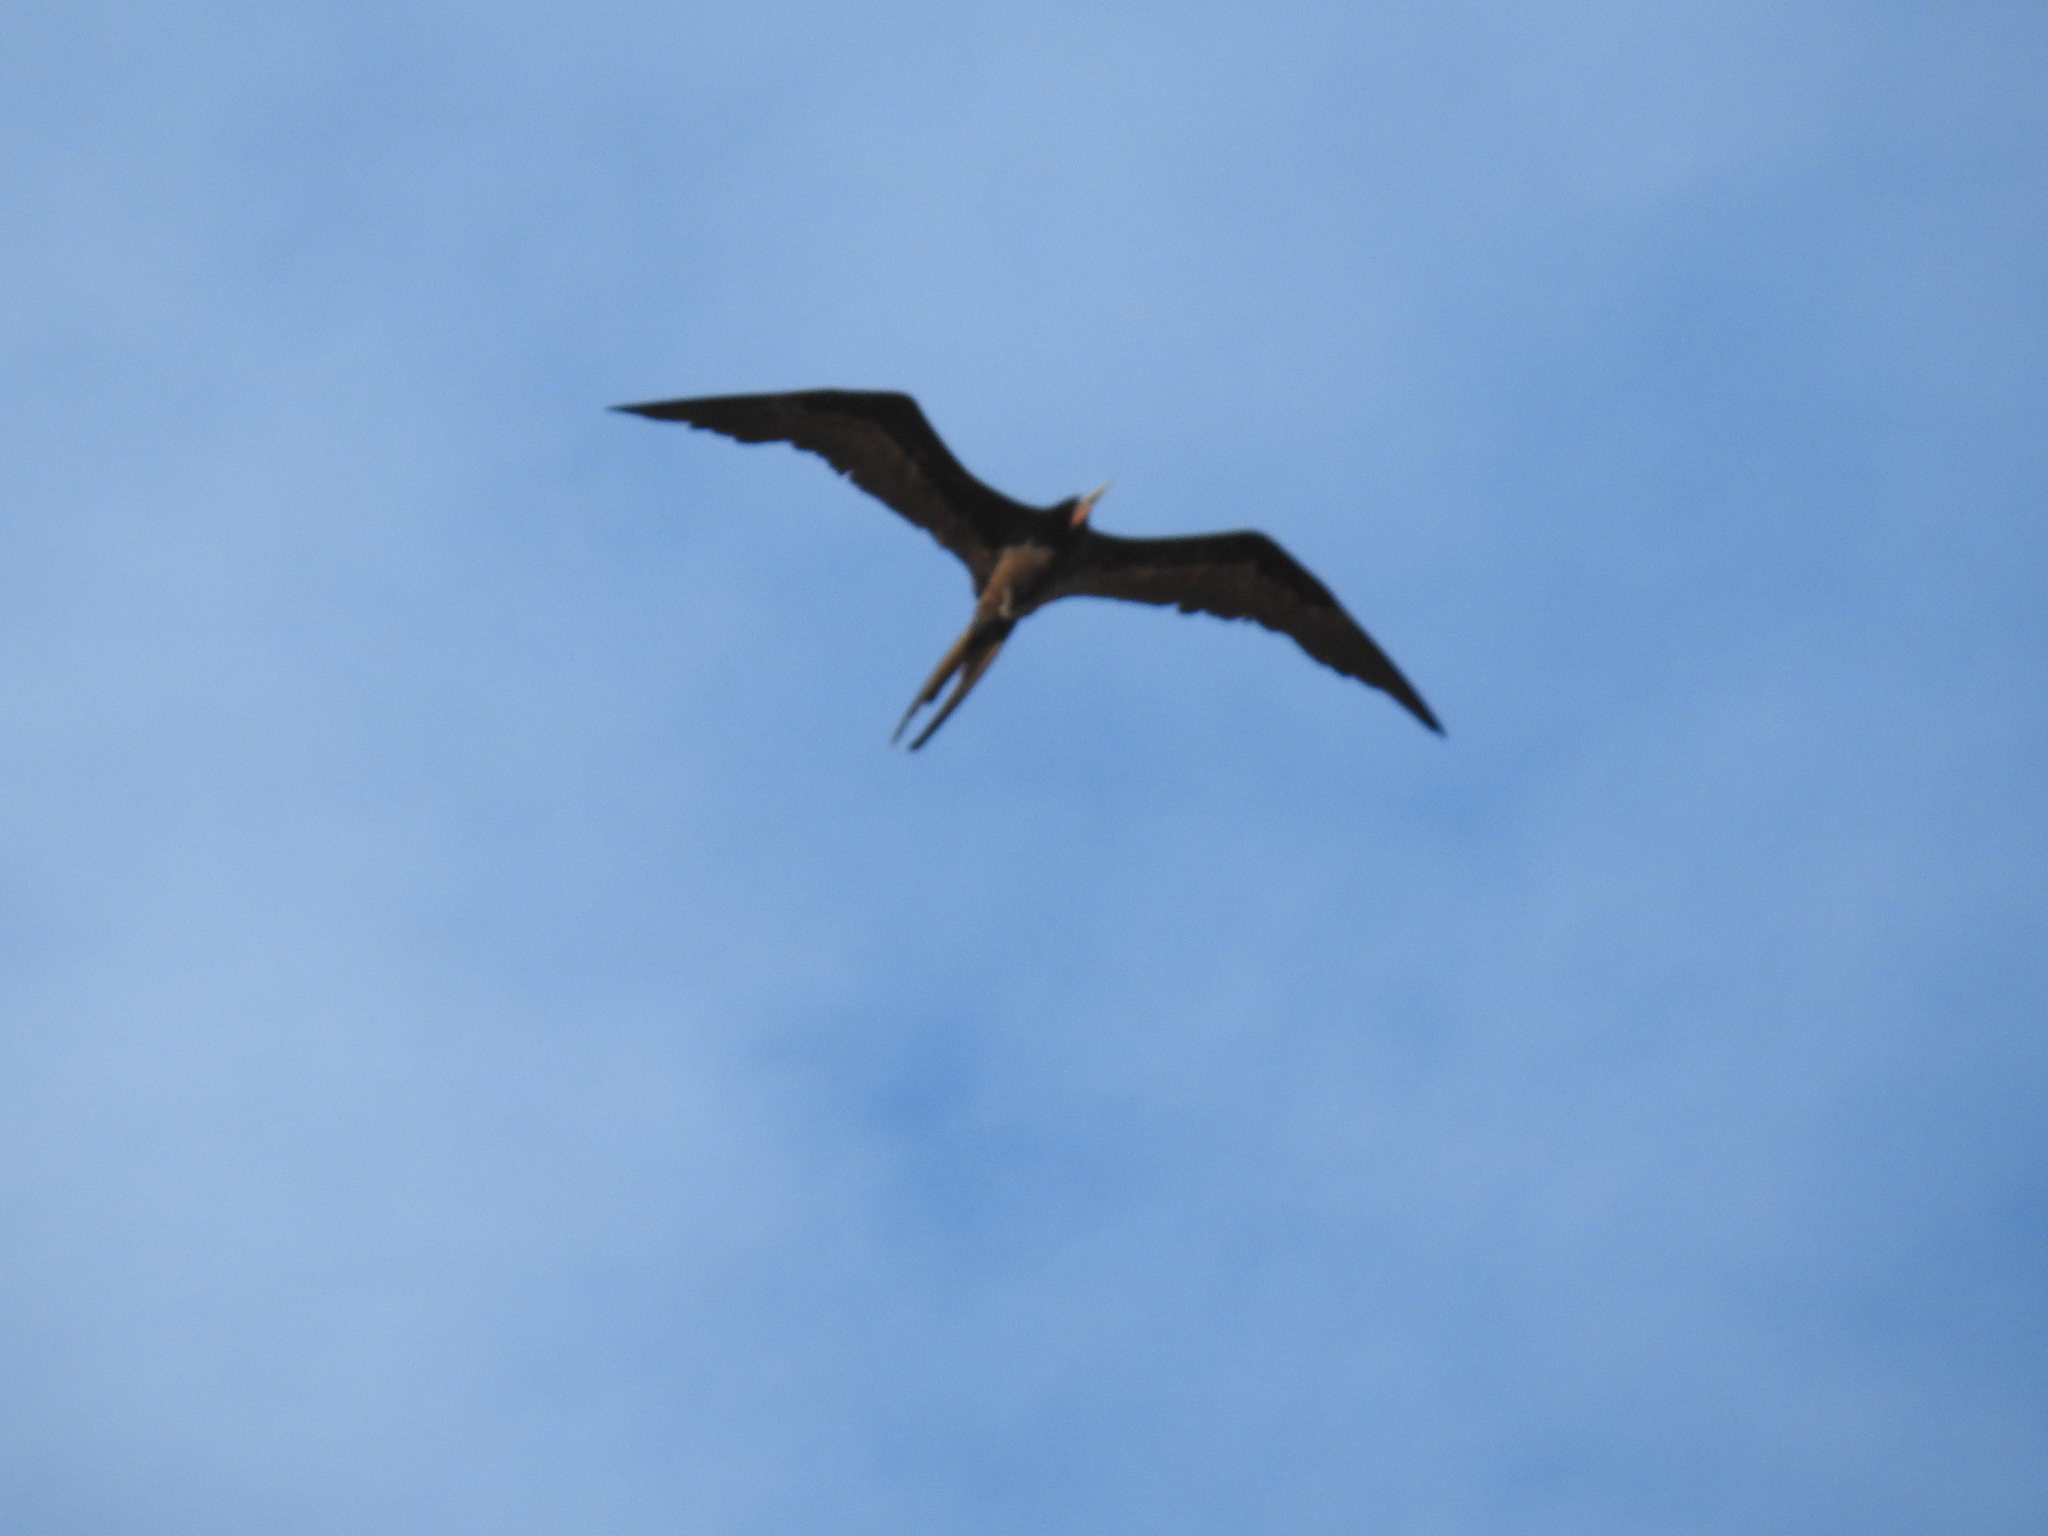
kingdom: Animalia
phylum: Chordata
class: Aves
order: Suliformes
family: Fregatidae
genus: Fregata
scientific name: Fregata magnificens
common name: Magnificent frigatebird
